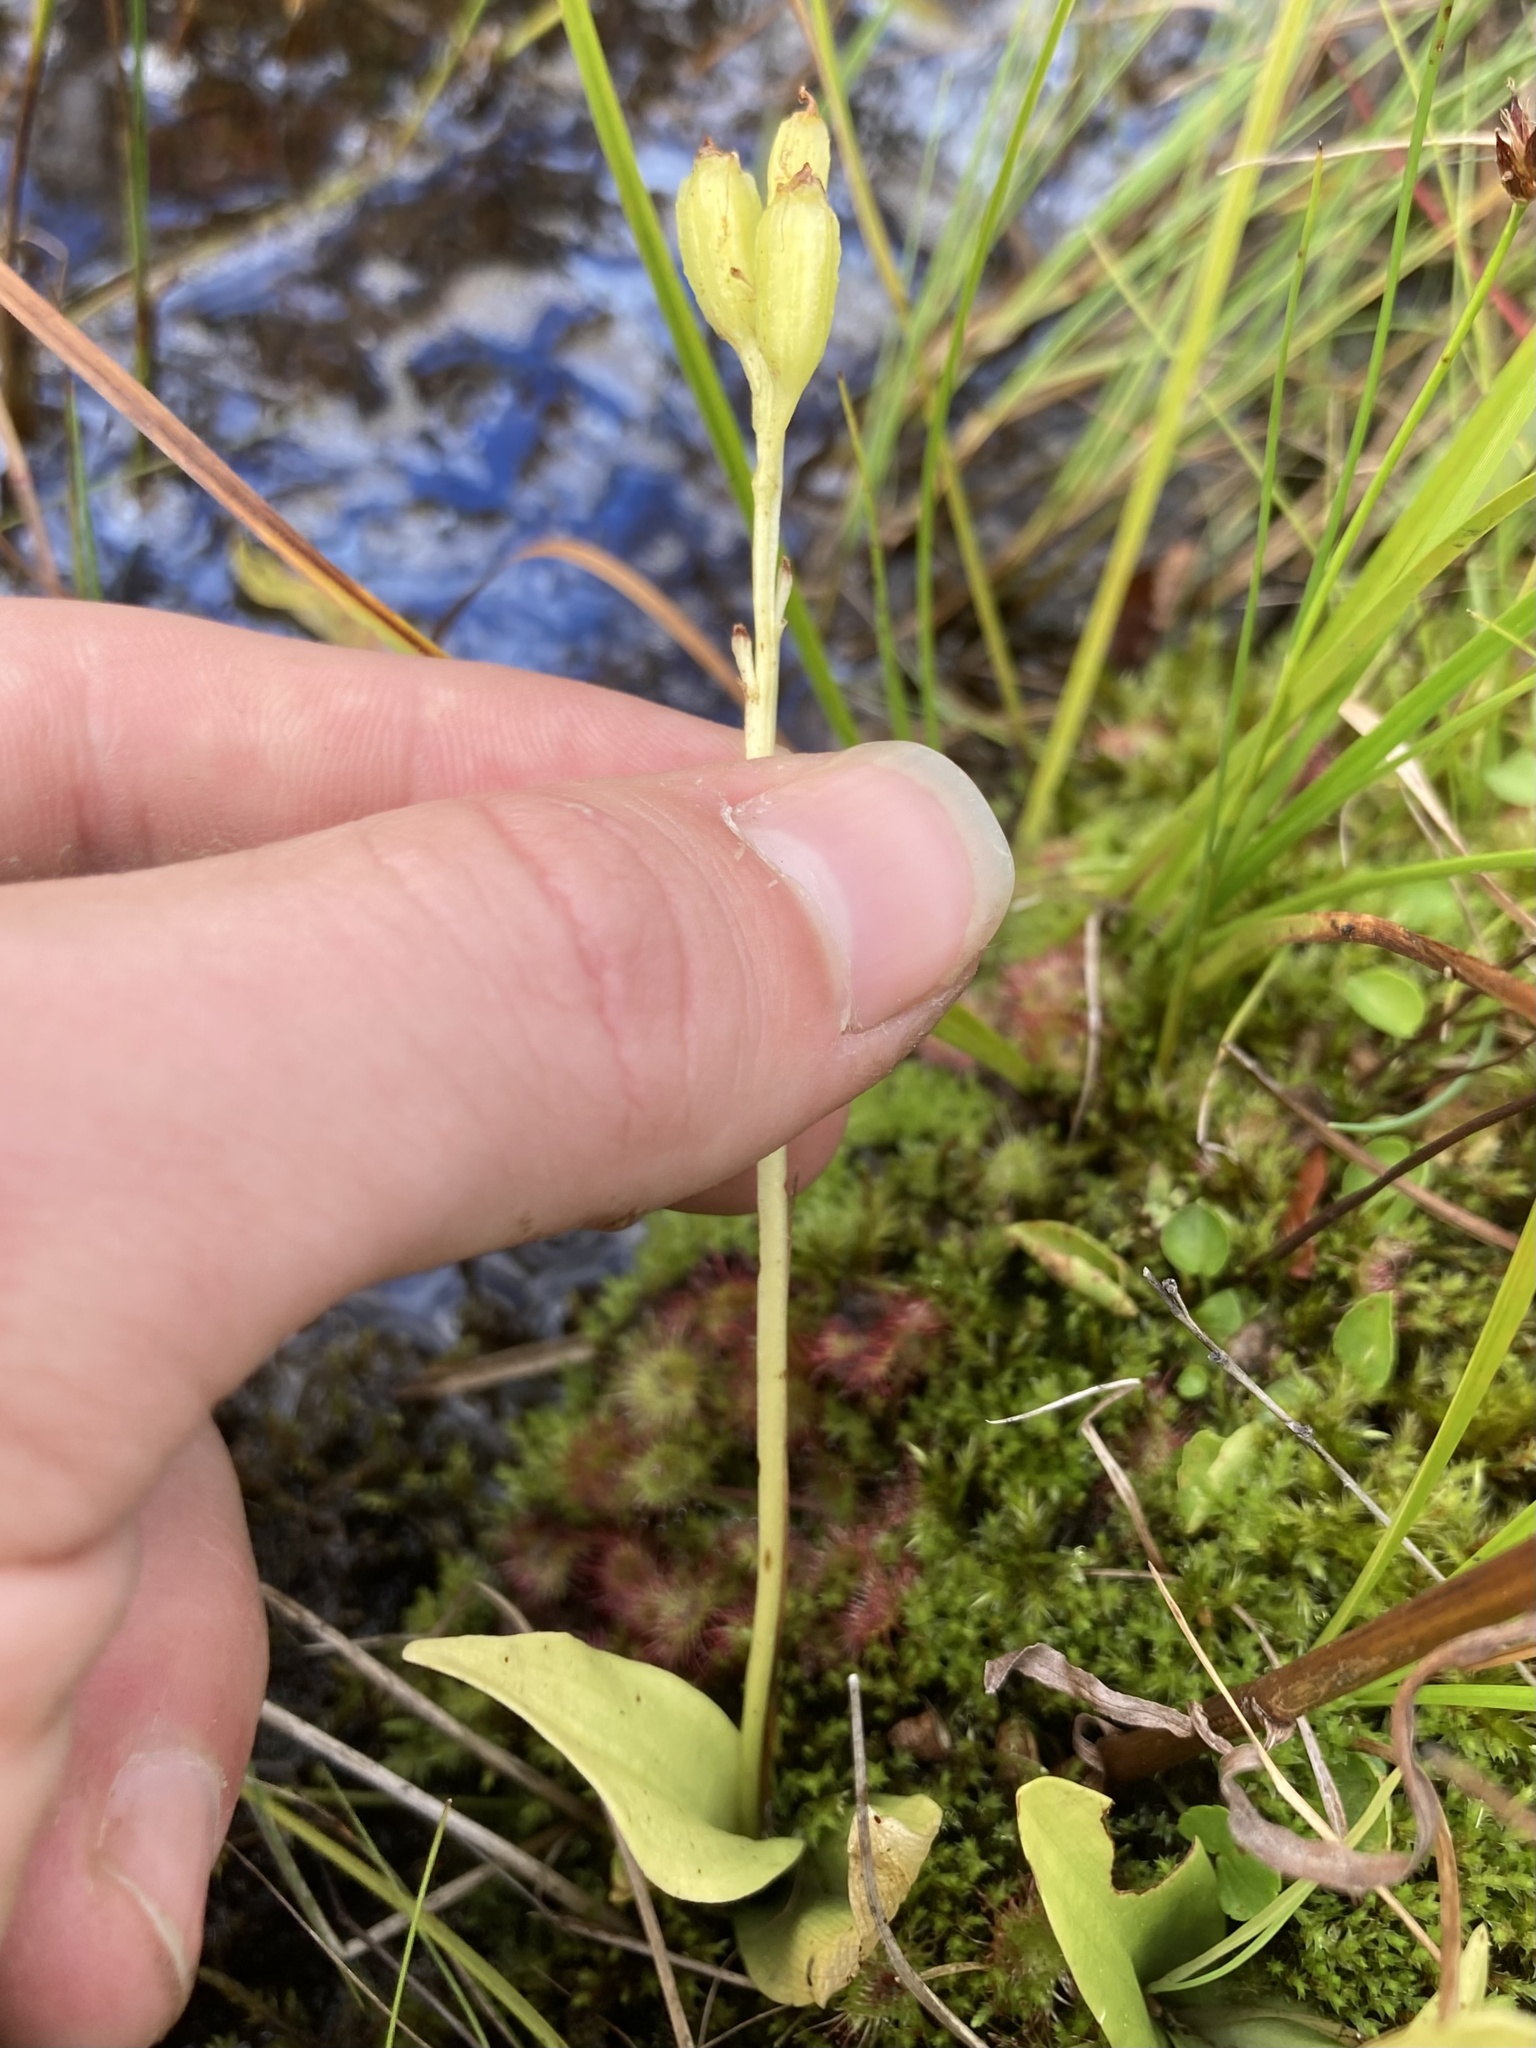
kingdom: Animalia
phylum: Arthropoda
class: Insecta
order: Coleoptera
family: Curculionidae
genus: Liparis
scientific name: Liparis loeselii
